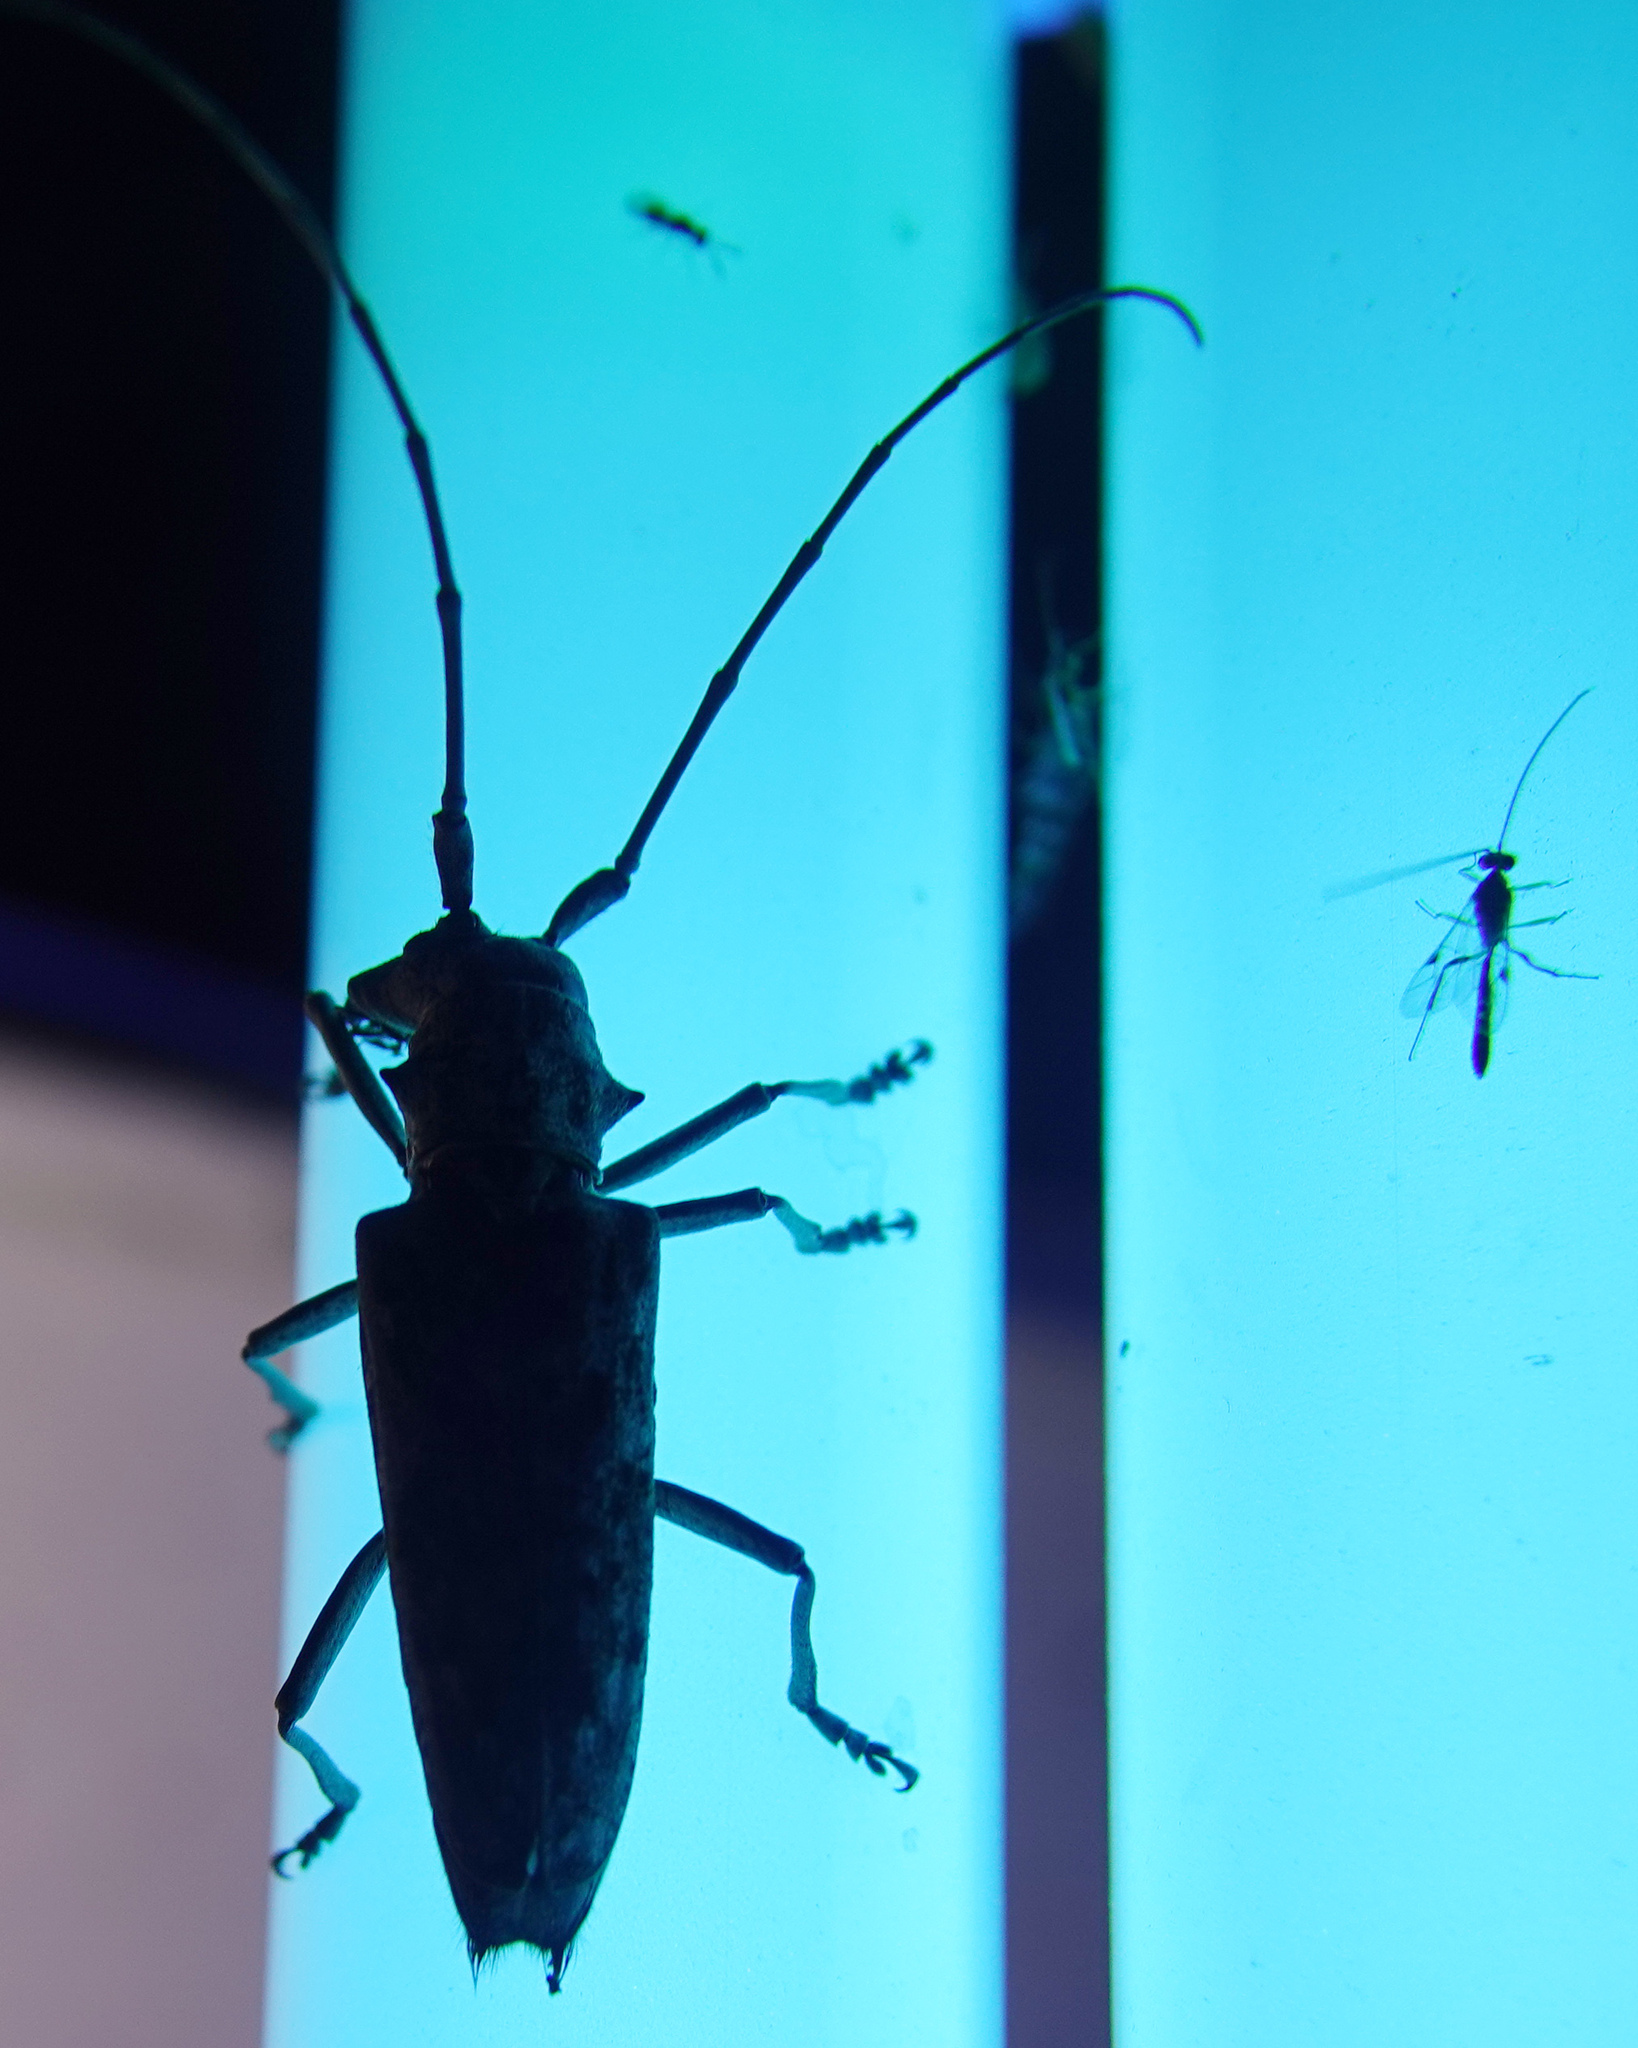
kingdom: Animalia
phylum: Arthropoda
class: Insecta
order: Coleoptera
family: Cerambycidae
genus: Monochamus
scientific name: Monochamus notatus
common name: Northeastern pine sawyer beetle
